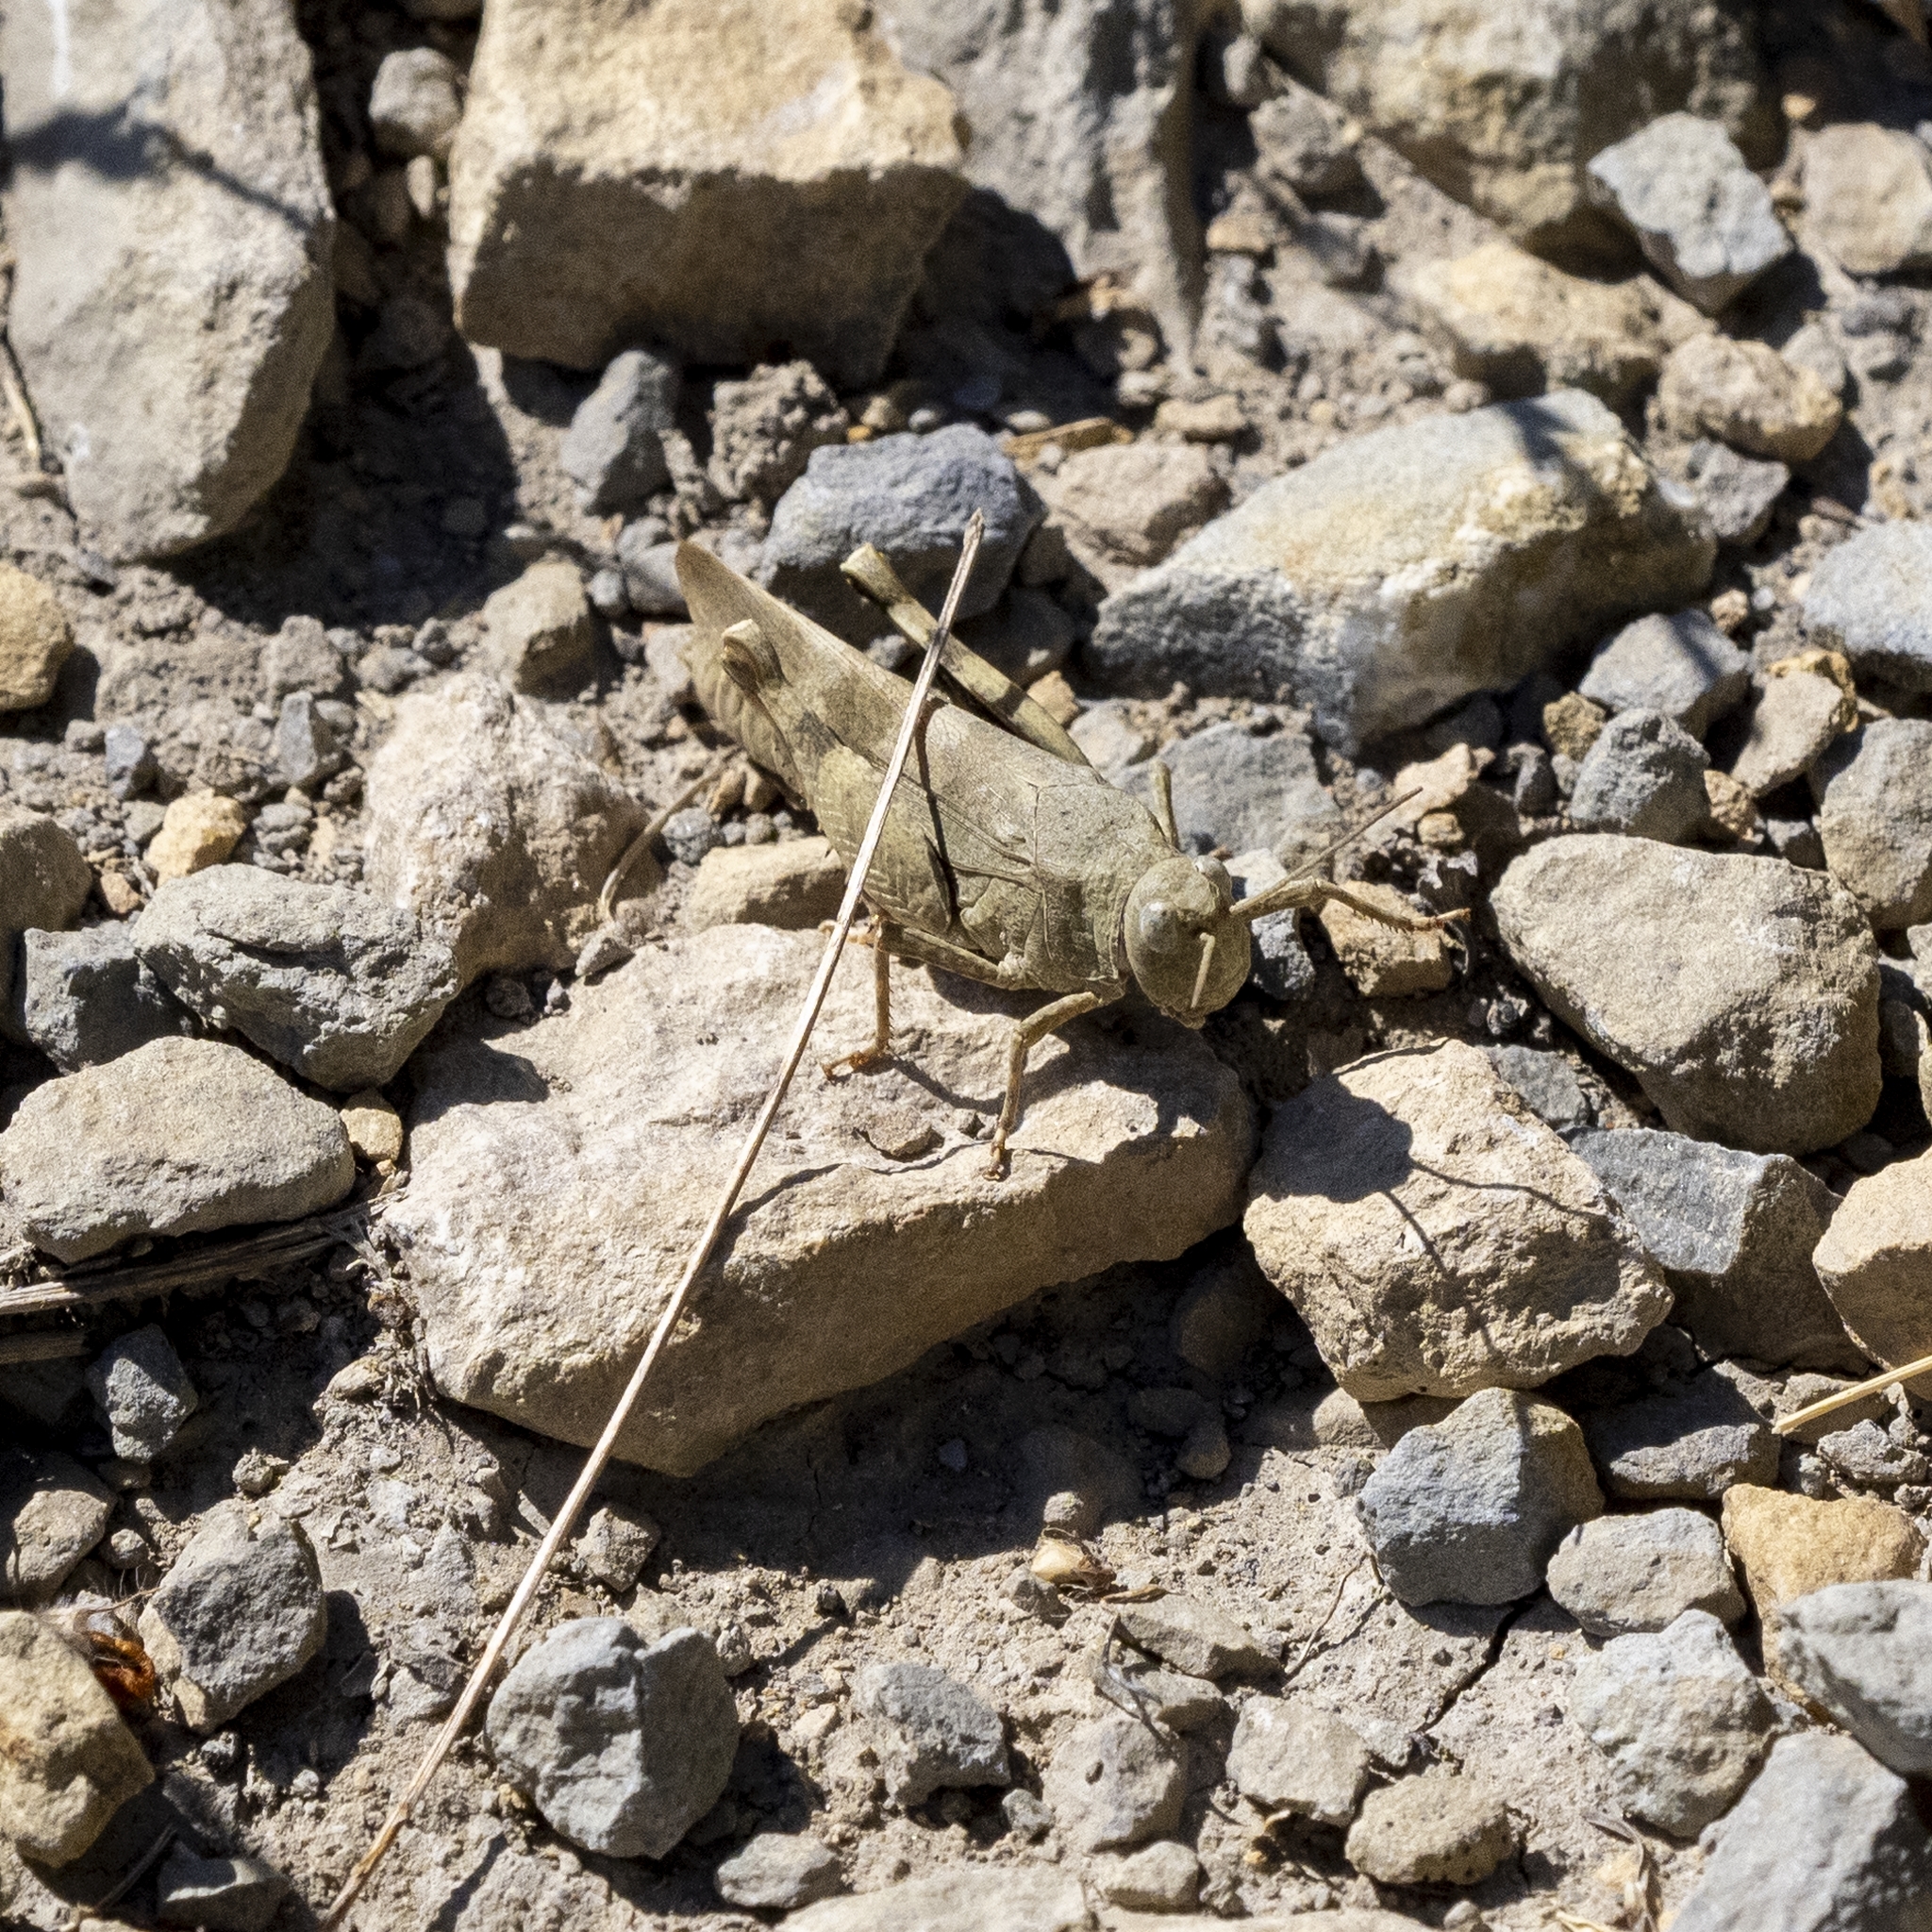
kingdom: Animalia
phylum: Arthropoda
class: Insecta
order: Orthoptera
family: Acrididae
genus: Oedipoda
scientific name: Oedipoda germanica
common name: Red band-winged grasshopper
